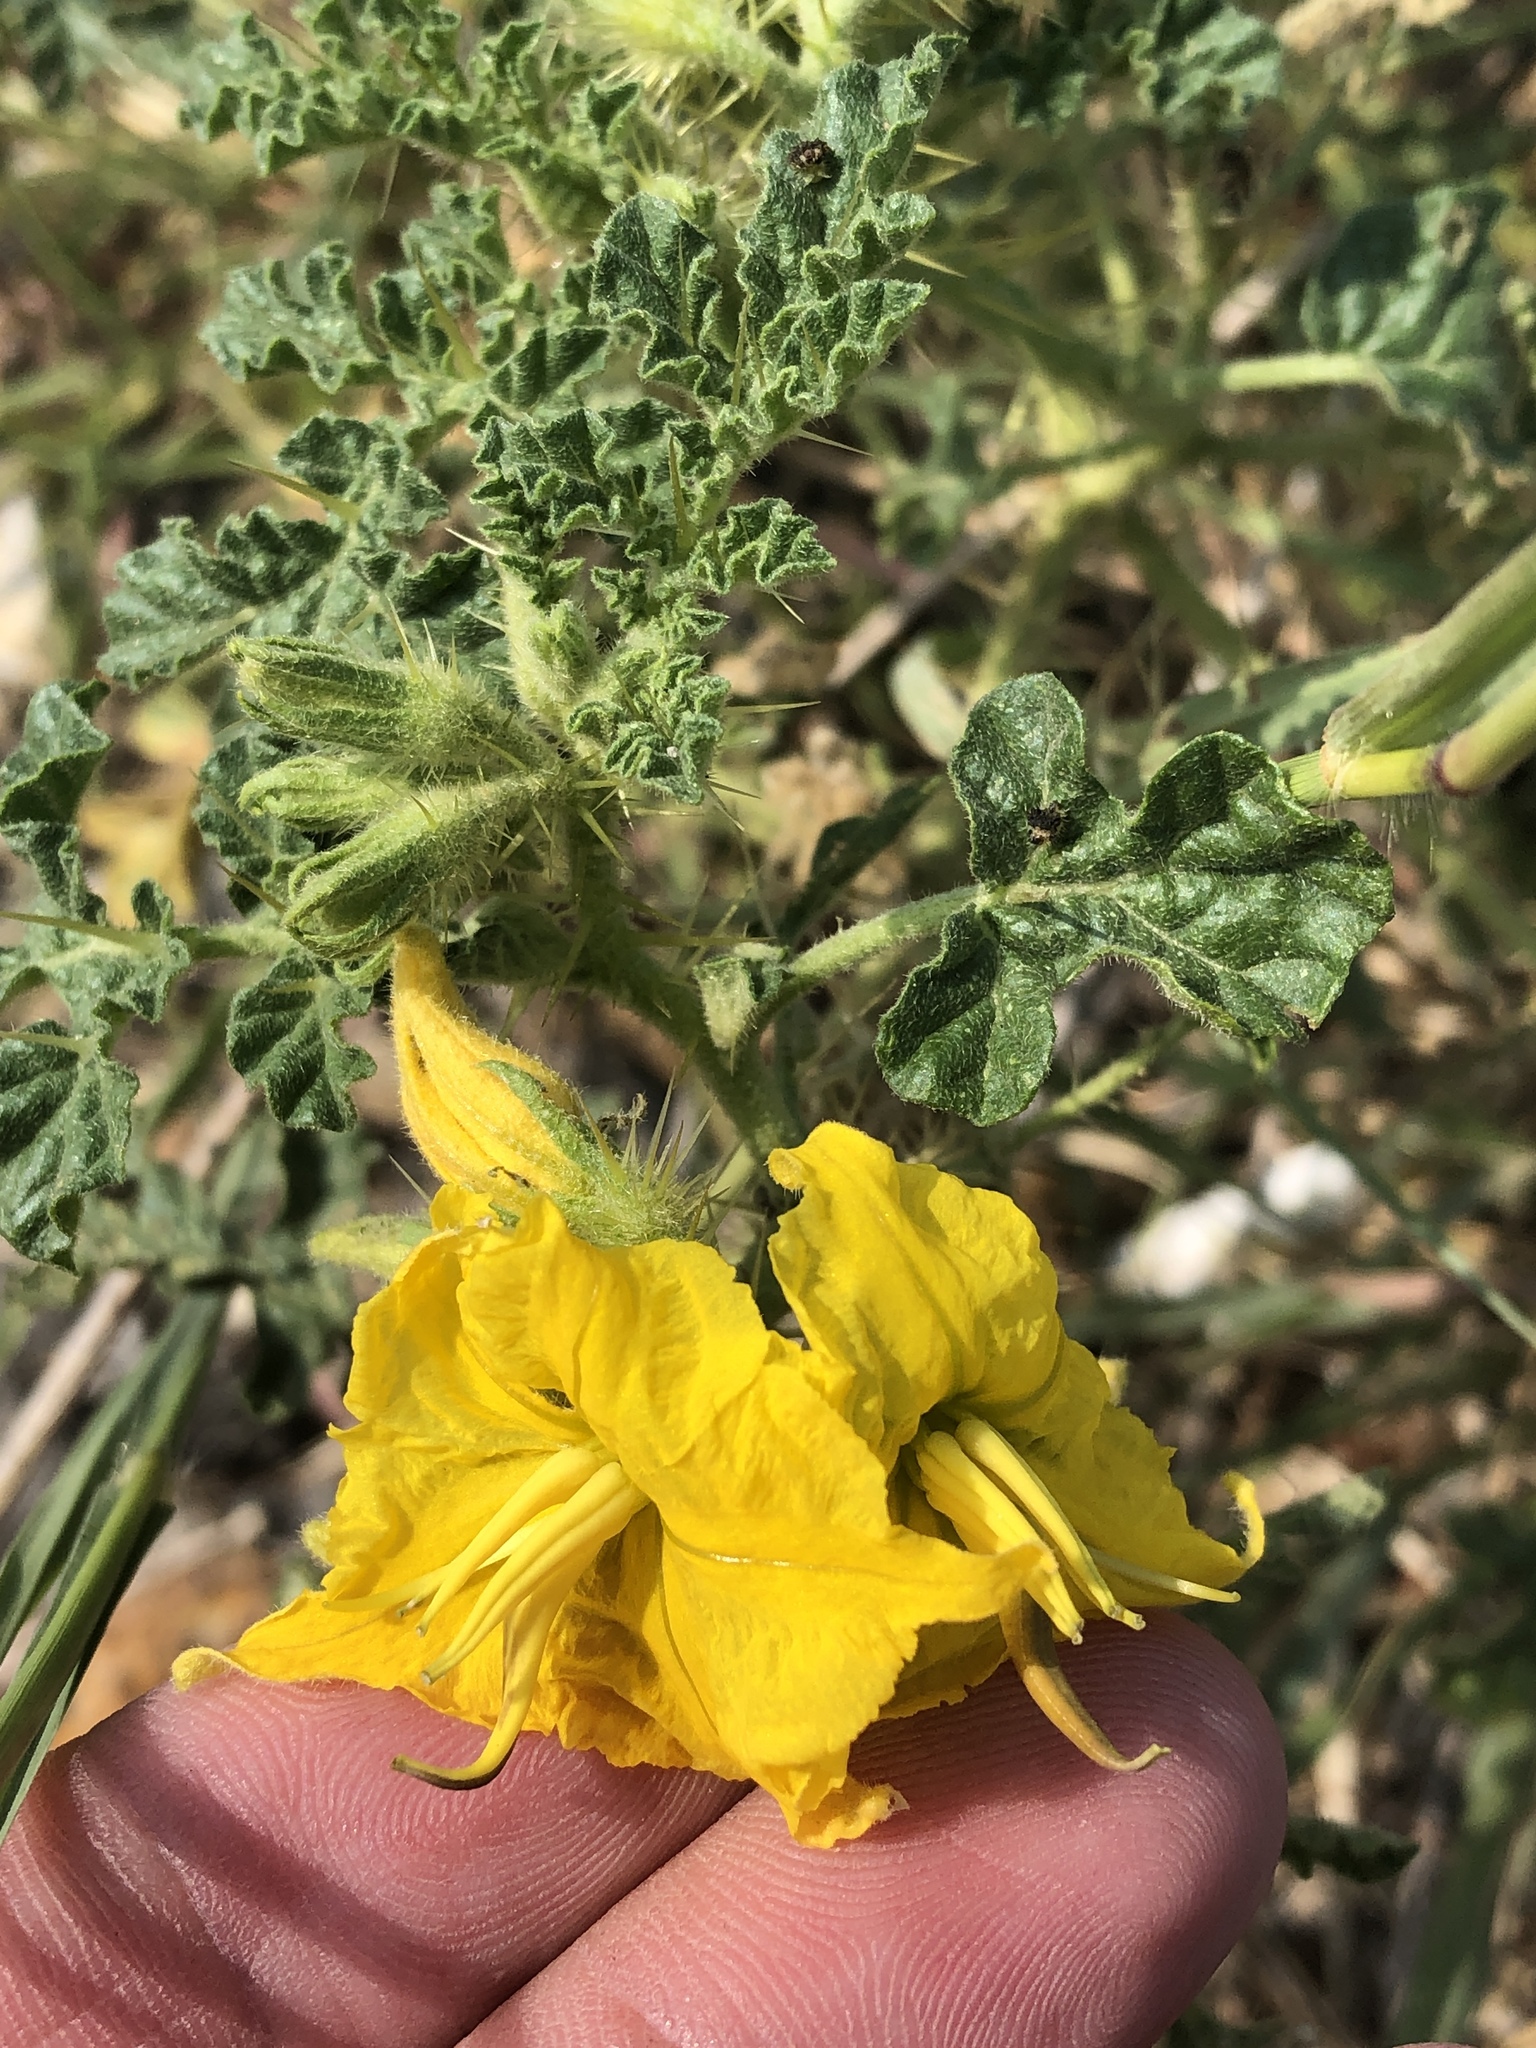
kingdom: Plantae
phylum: Tracheophyta
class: Magnoliopsida
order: Solanales
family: Solanaceae
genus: Solanum
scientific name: Solanum angustifolium
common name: Buffalobur nightshade
